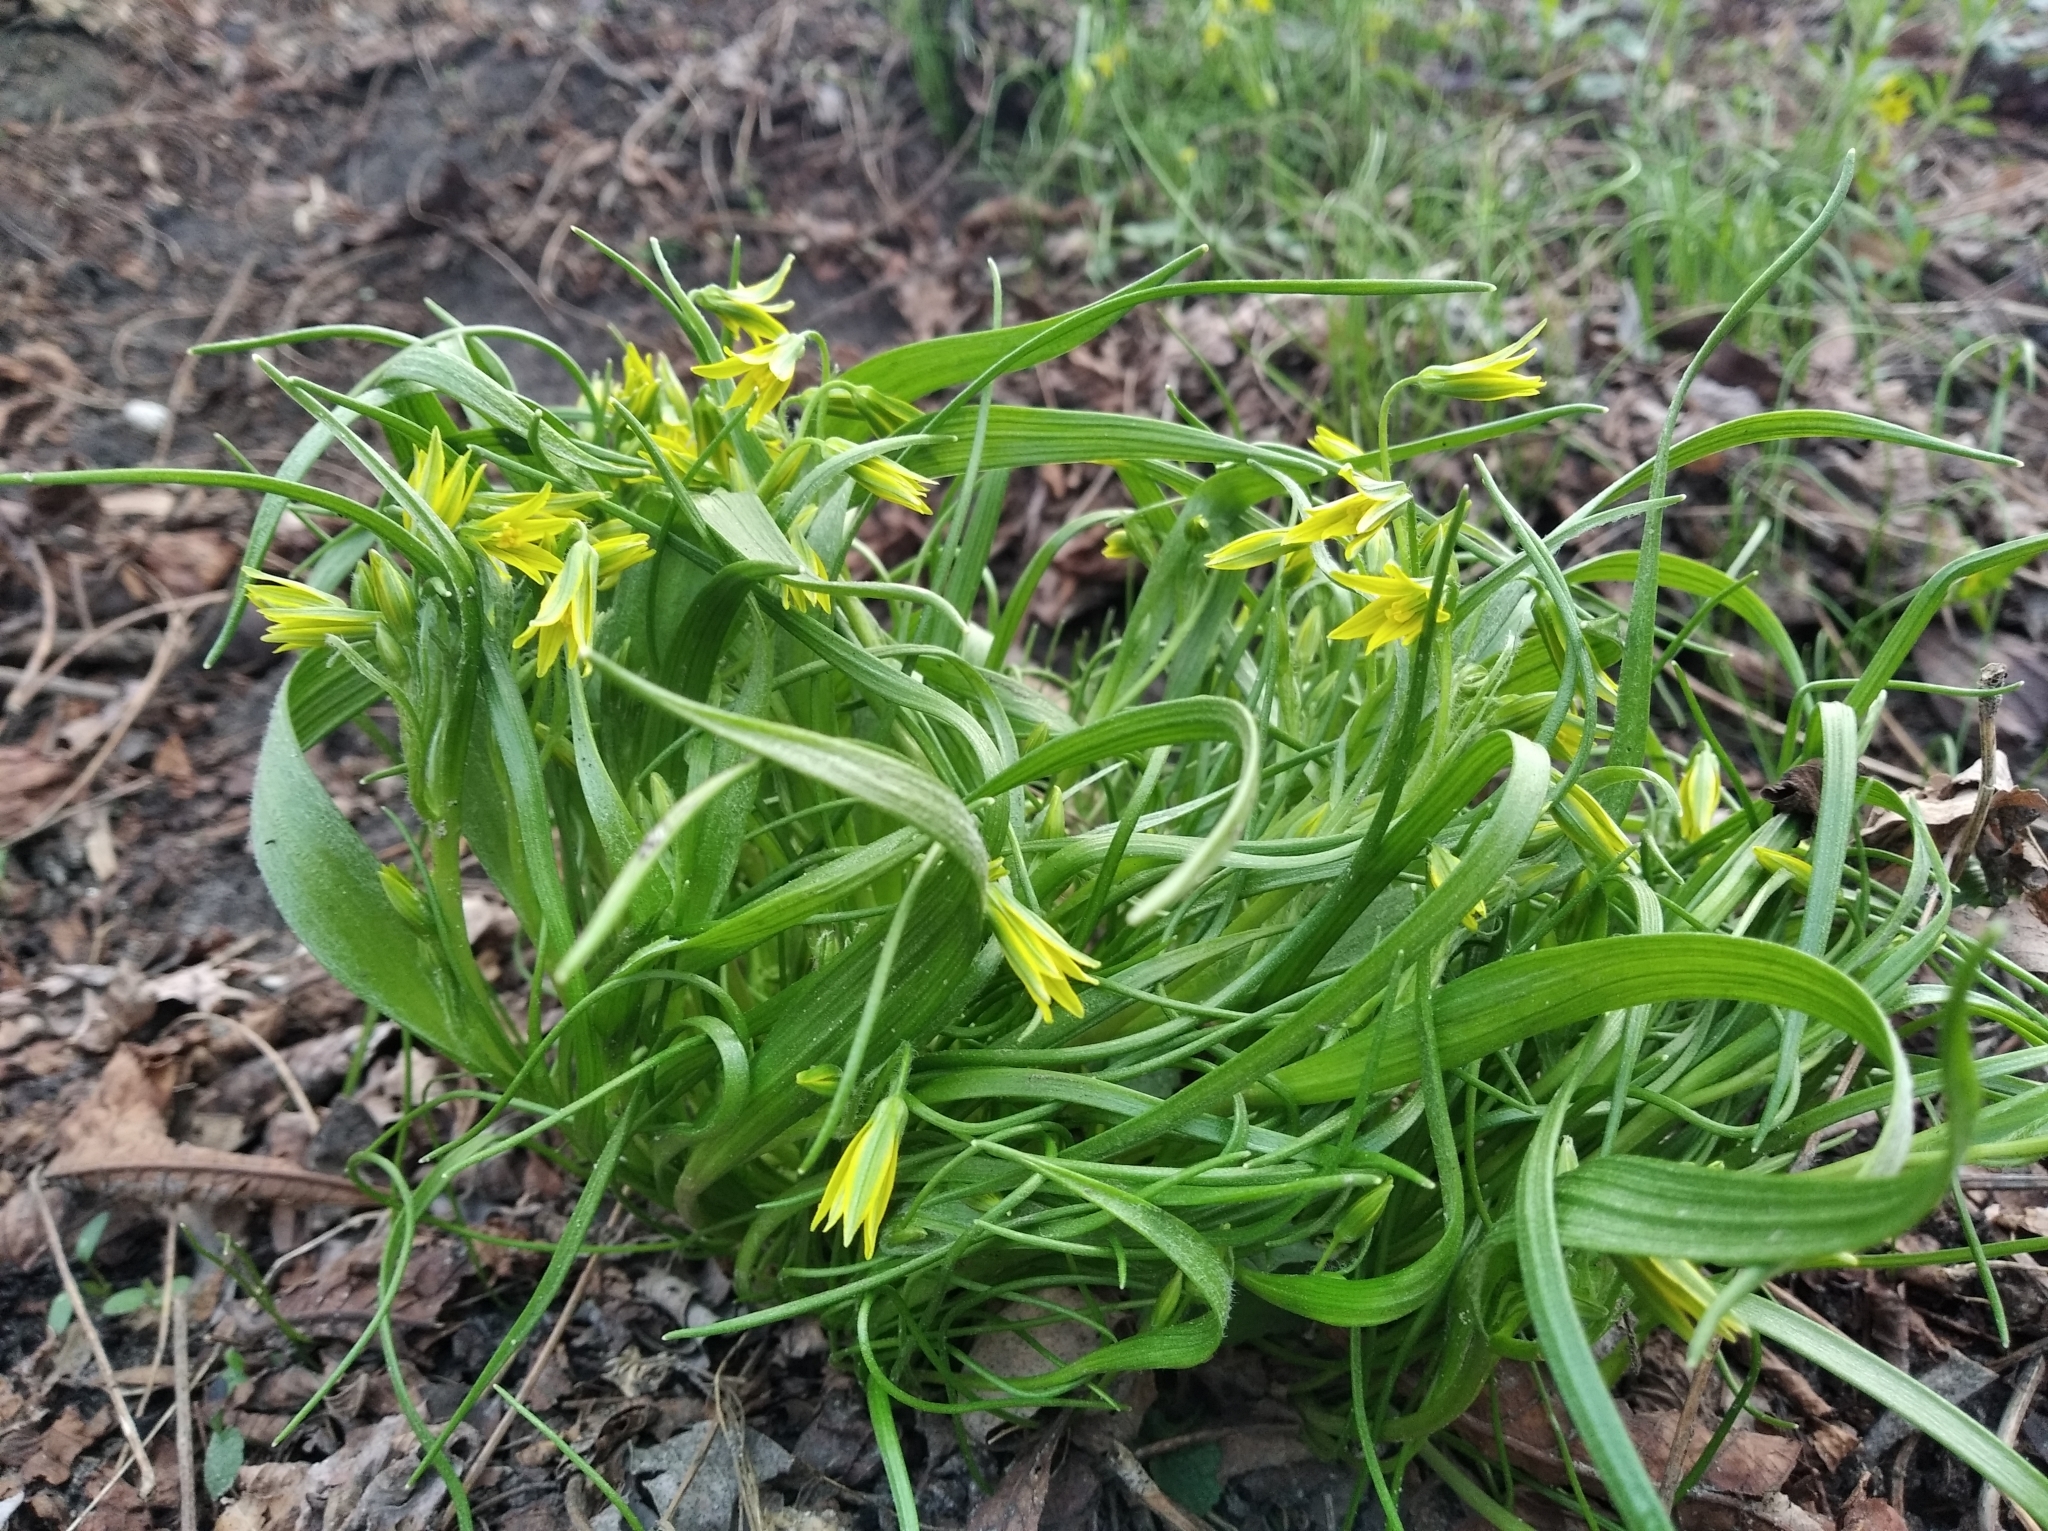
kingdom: Plantae
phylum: Tracheophyta
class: Liliopsida
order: Liliales
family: Liliaceae
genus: Gagea
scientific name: Gagea minima
